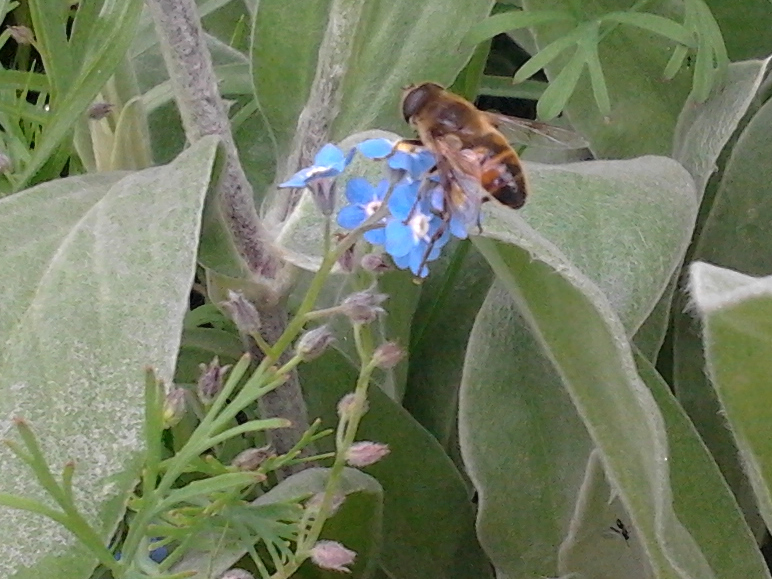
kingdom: Animalia
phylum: Arthropoda
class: Insecta
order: Diptera
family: Syrphidae
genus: Eristalis
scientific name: Eristalis tenax
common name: Drone fly
